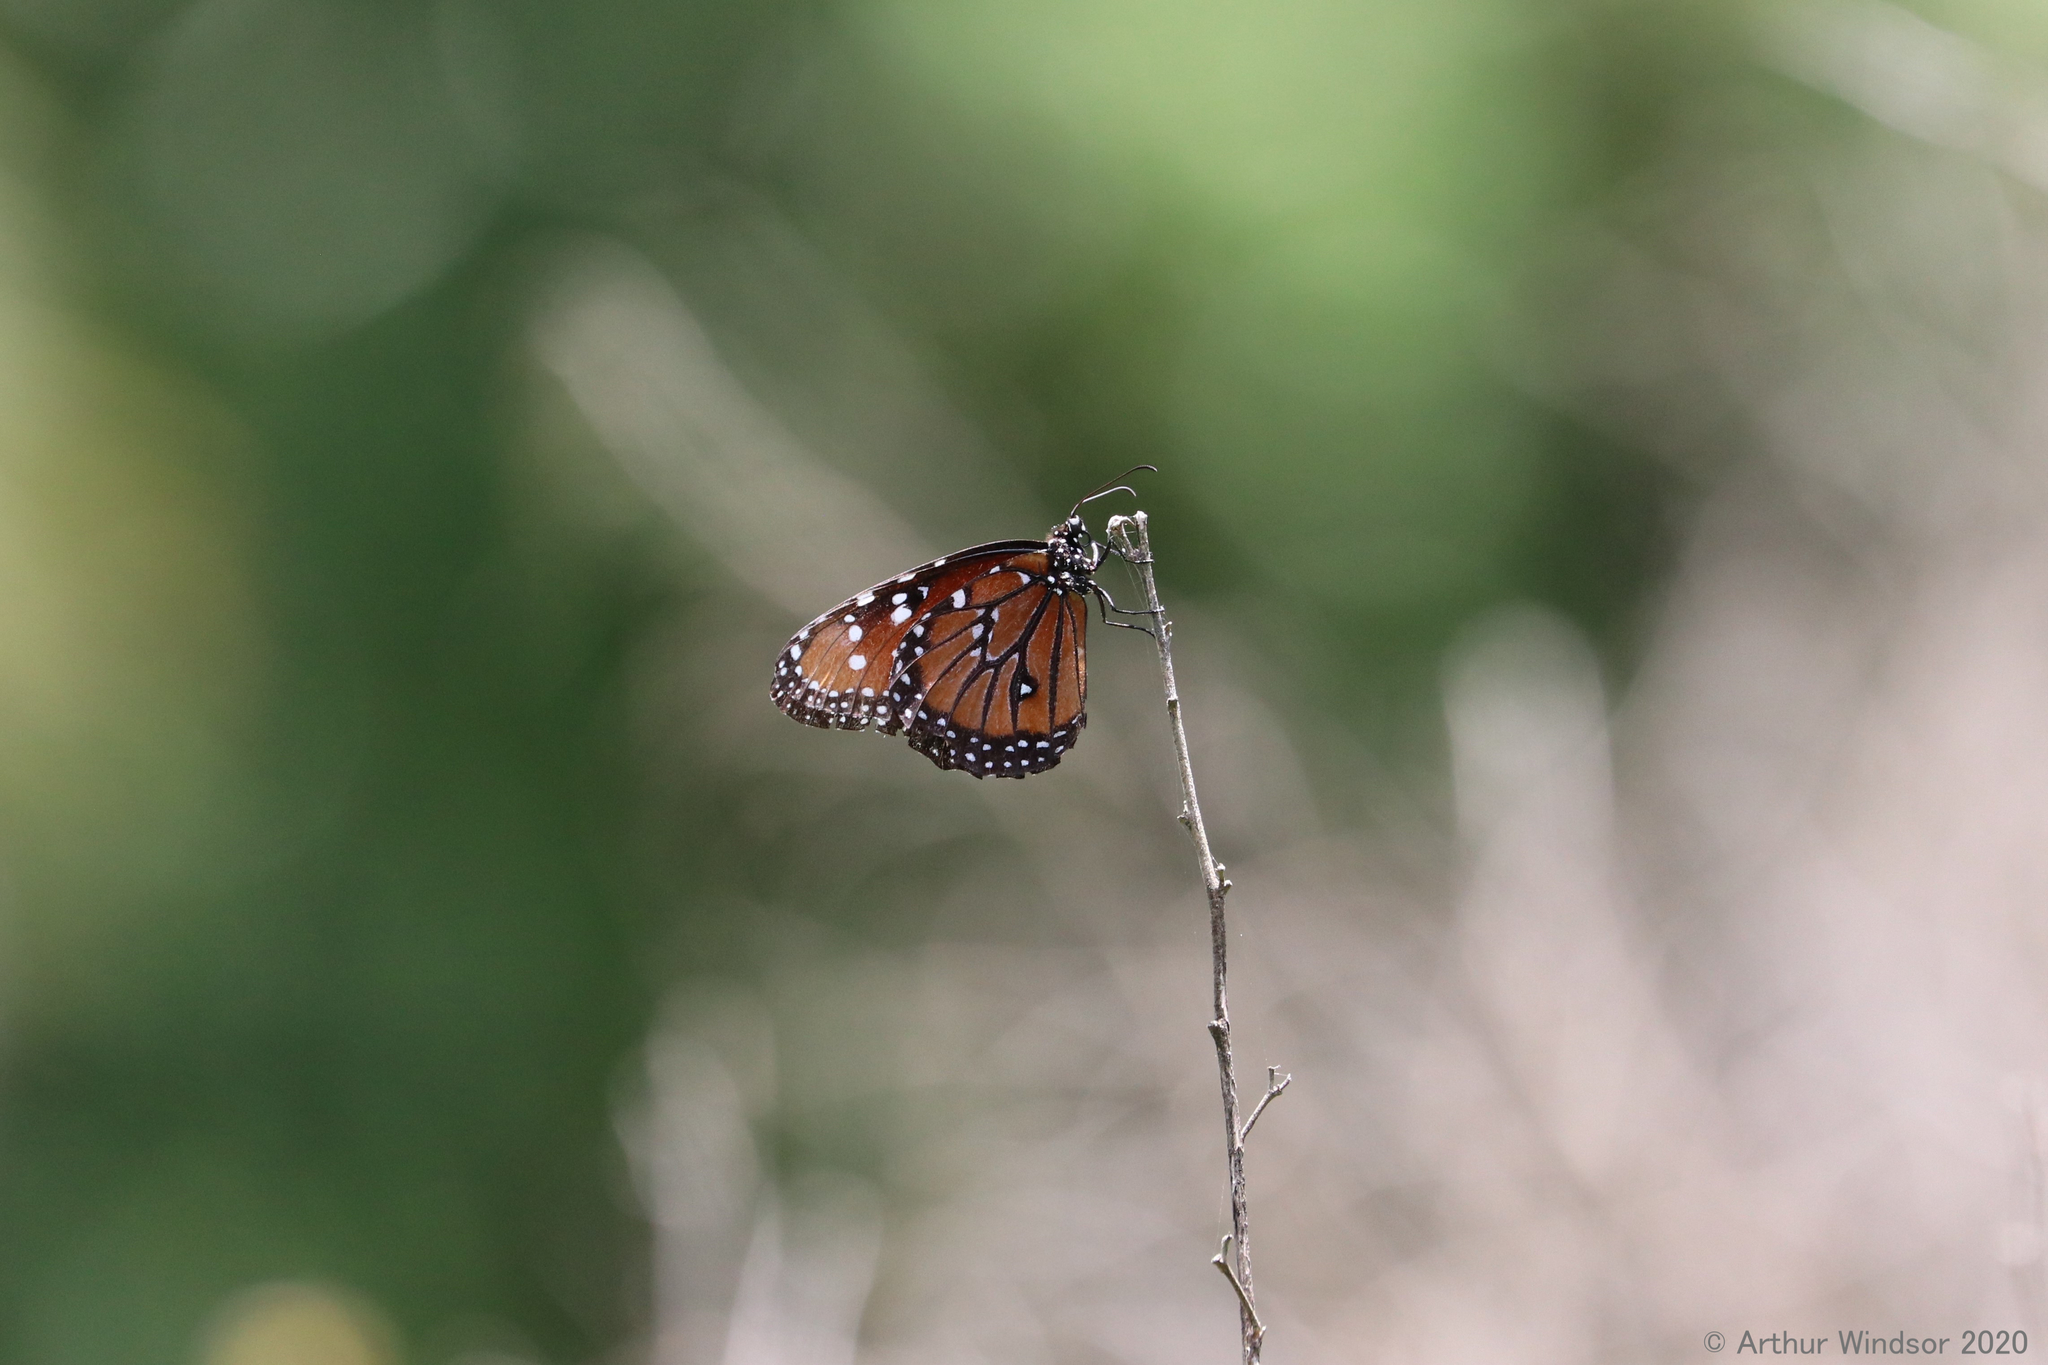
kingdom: Animalia
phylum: Arthropoda
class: Insecta
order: Lepidoptera
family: Nymphalidae
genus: Danaus
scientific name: Danaus gilippus
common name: Queen
